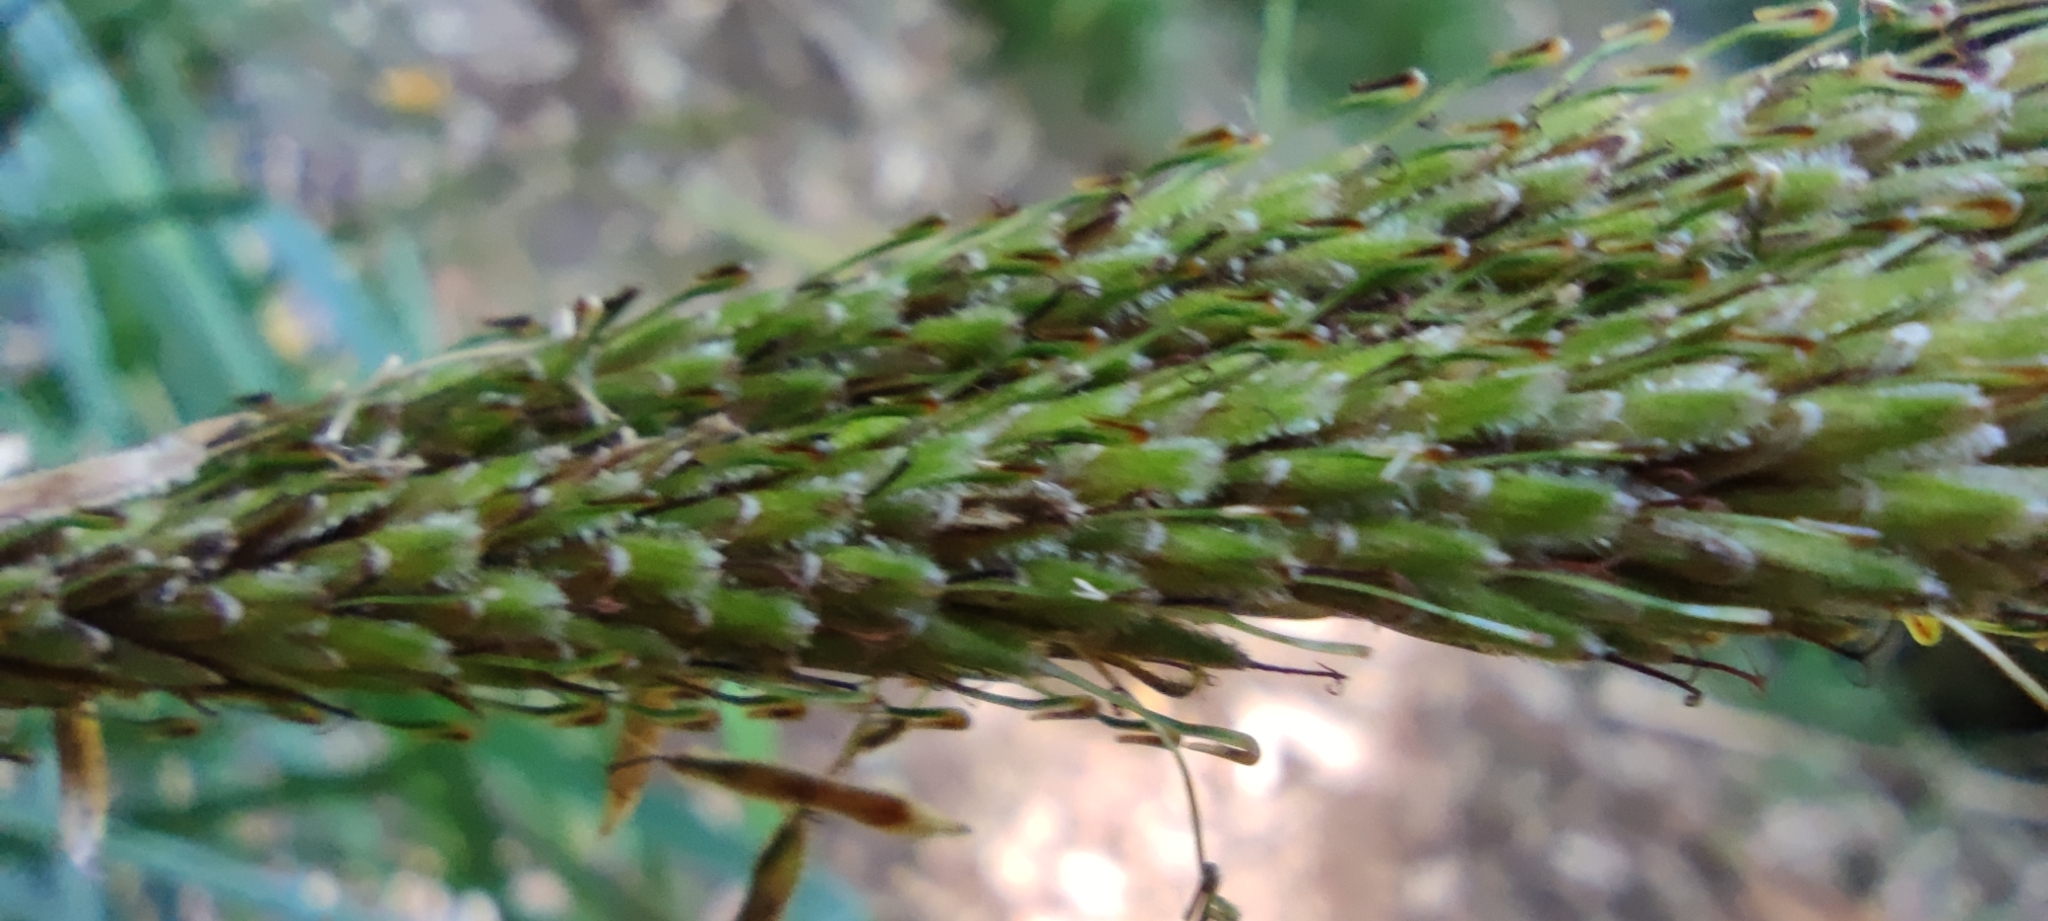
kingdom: Plantae
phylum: Tracheophyta
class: Liliopsida
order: Poales
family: Cyperaceae
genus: Carex
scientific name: Carex phleoides
